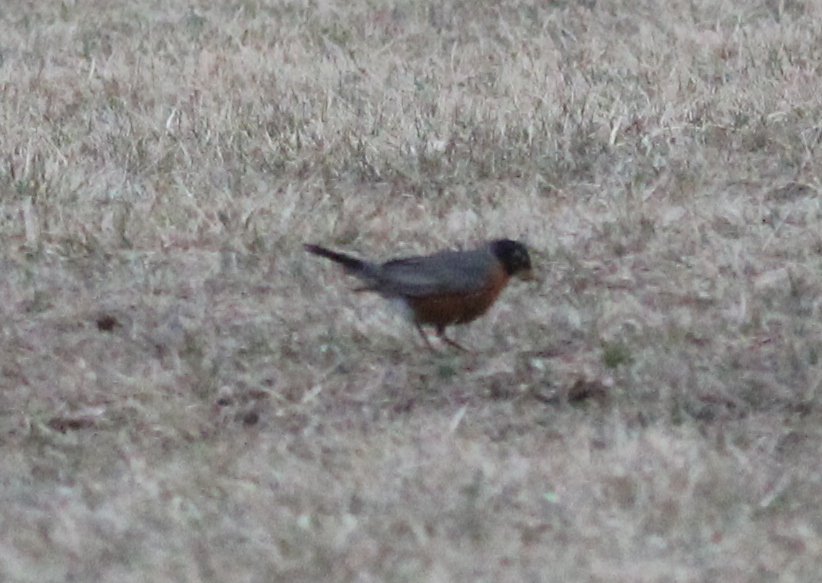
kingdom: Animalia
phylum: Chordata
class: Aves
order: Passeriformes
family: Turdidae
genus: Turdus
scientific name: Turdus migratorius
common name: American robin
